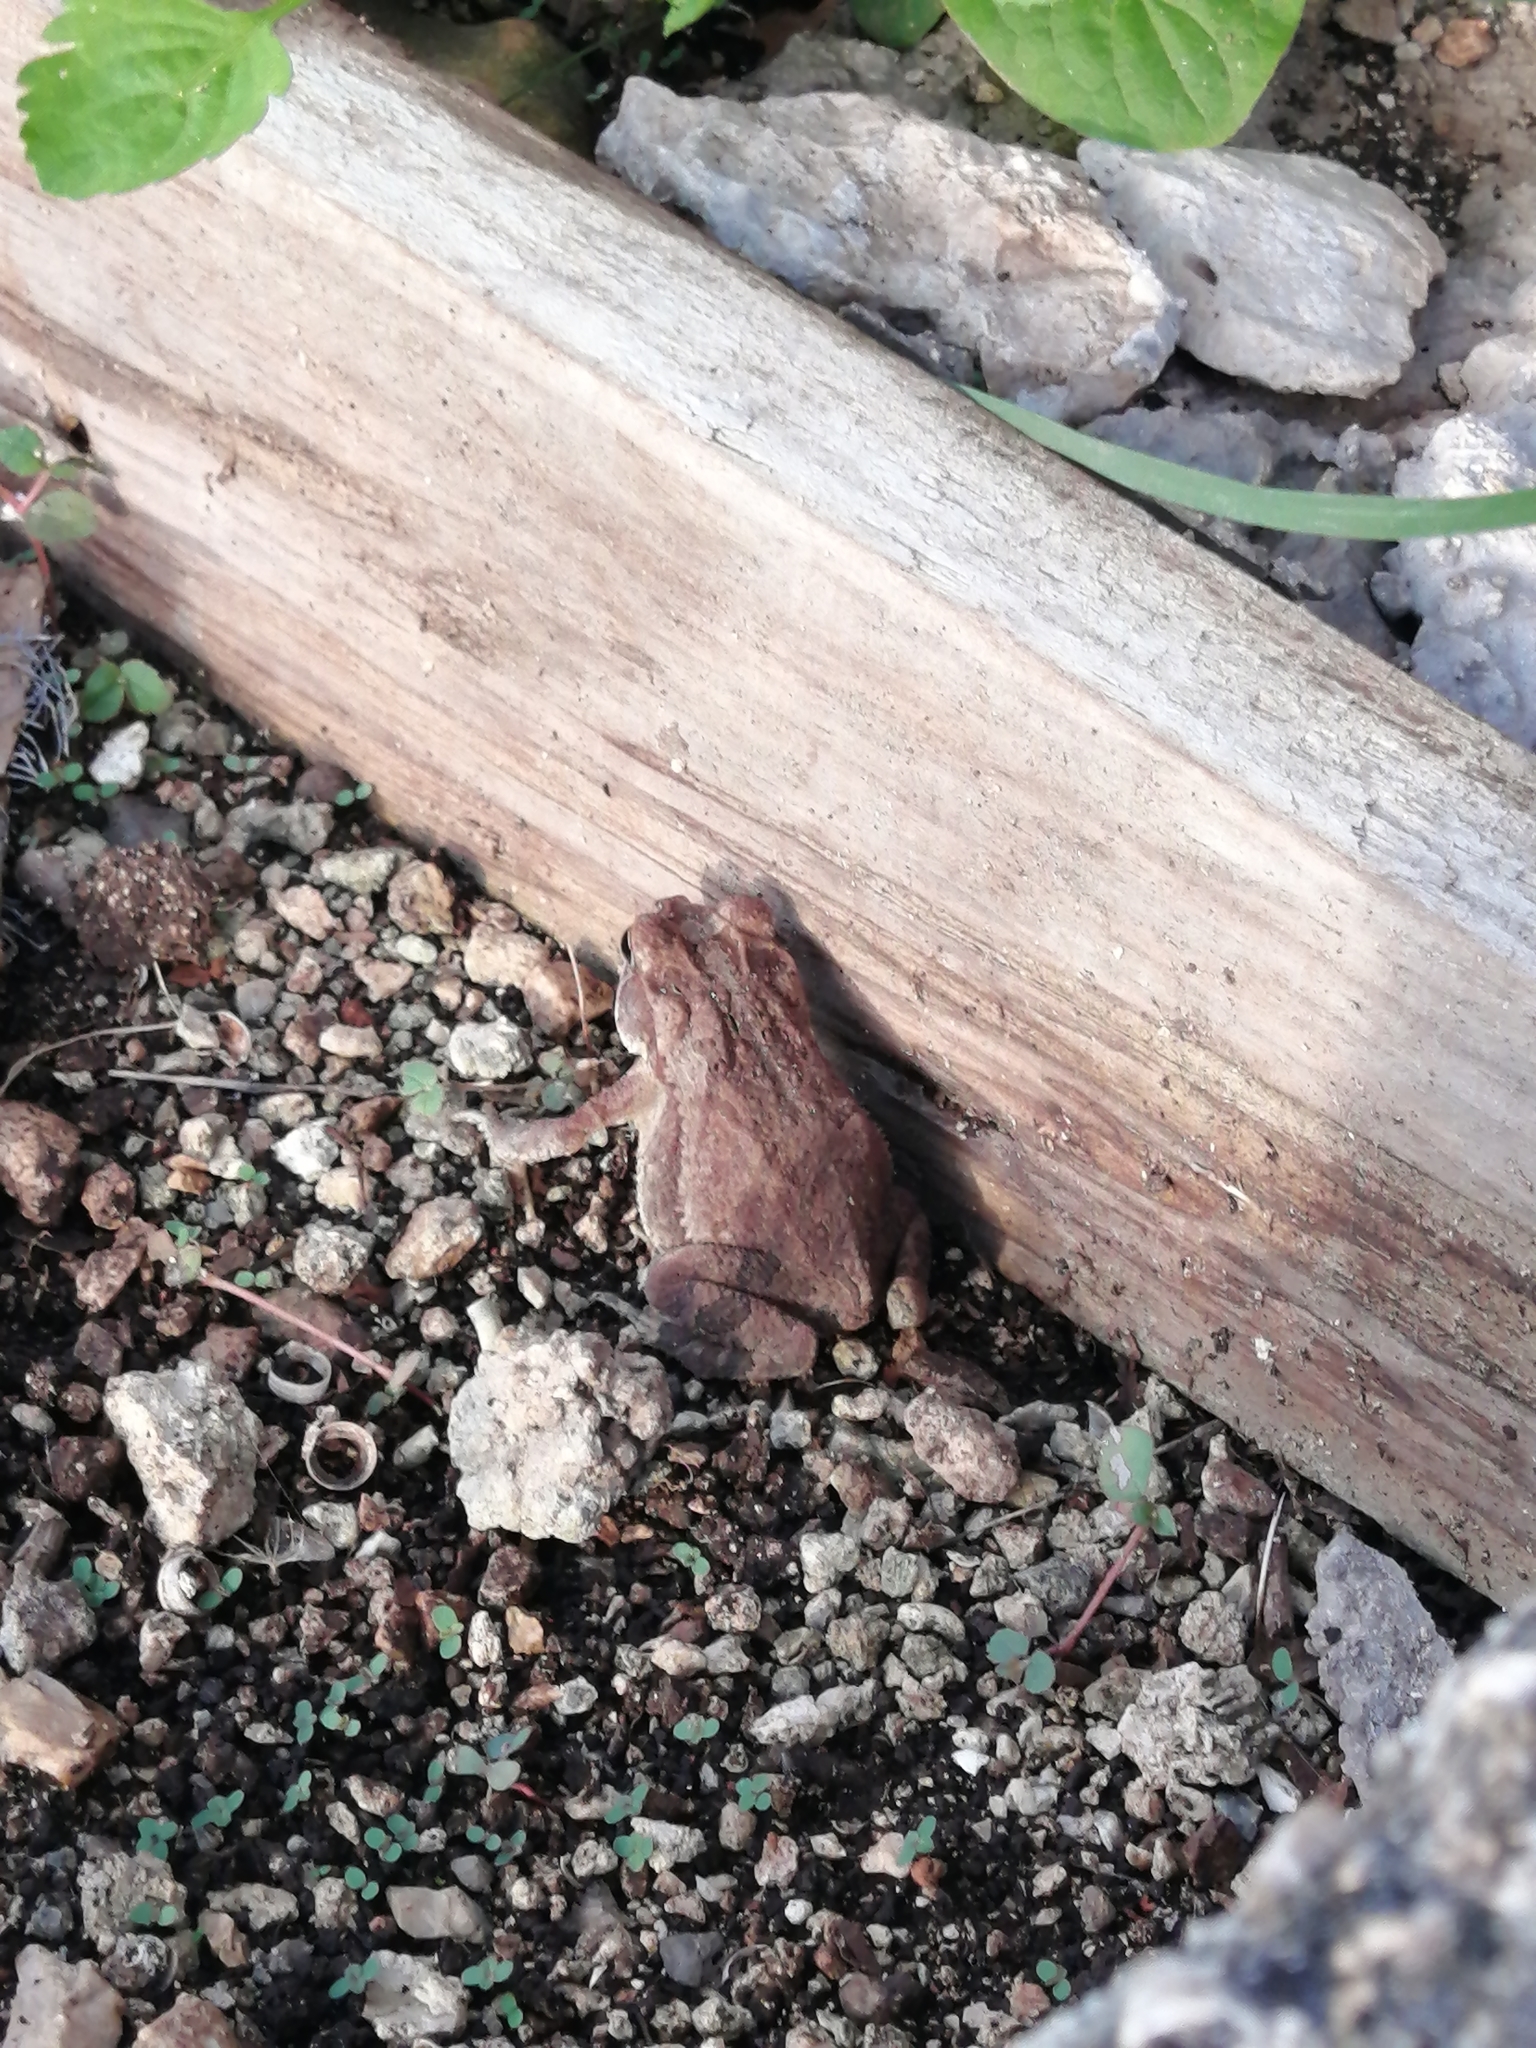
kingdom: Animalia
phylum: Chordata
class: Amphibia
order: Anura
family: Bufonidae
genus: Incilius
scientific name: Incilius valliceps
